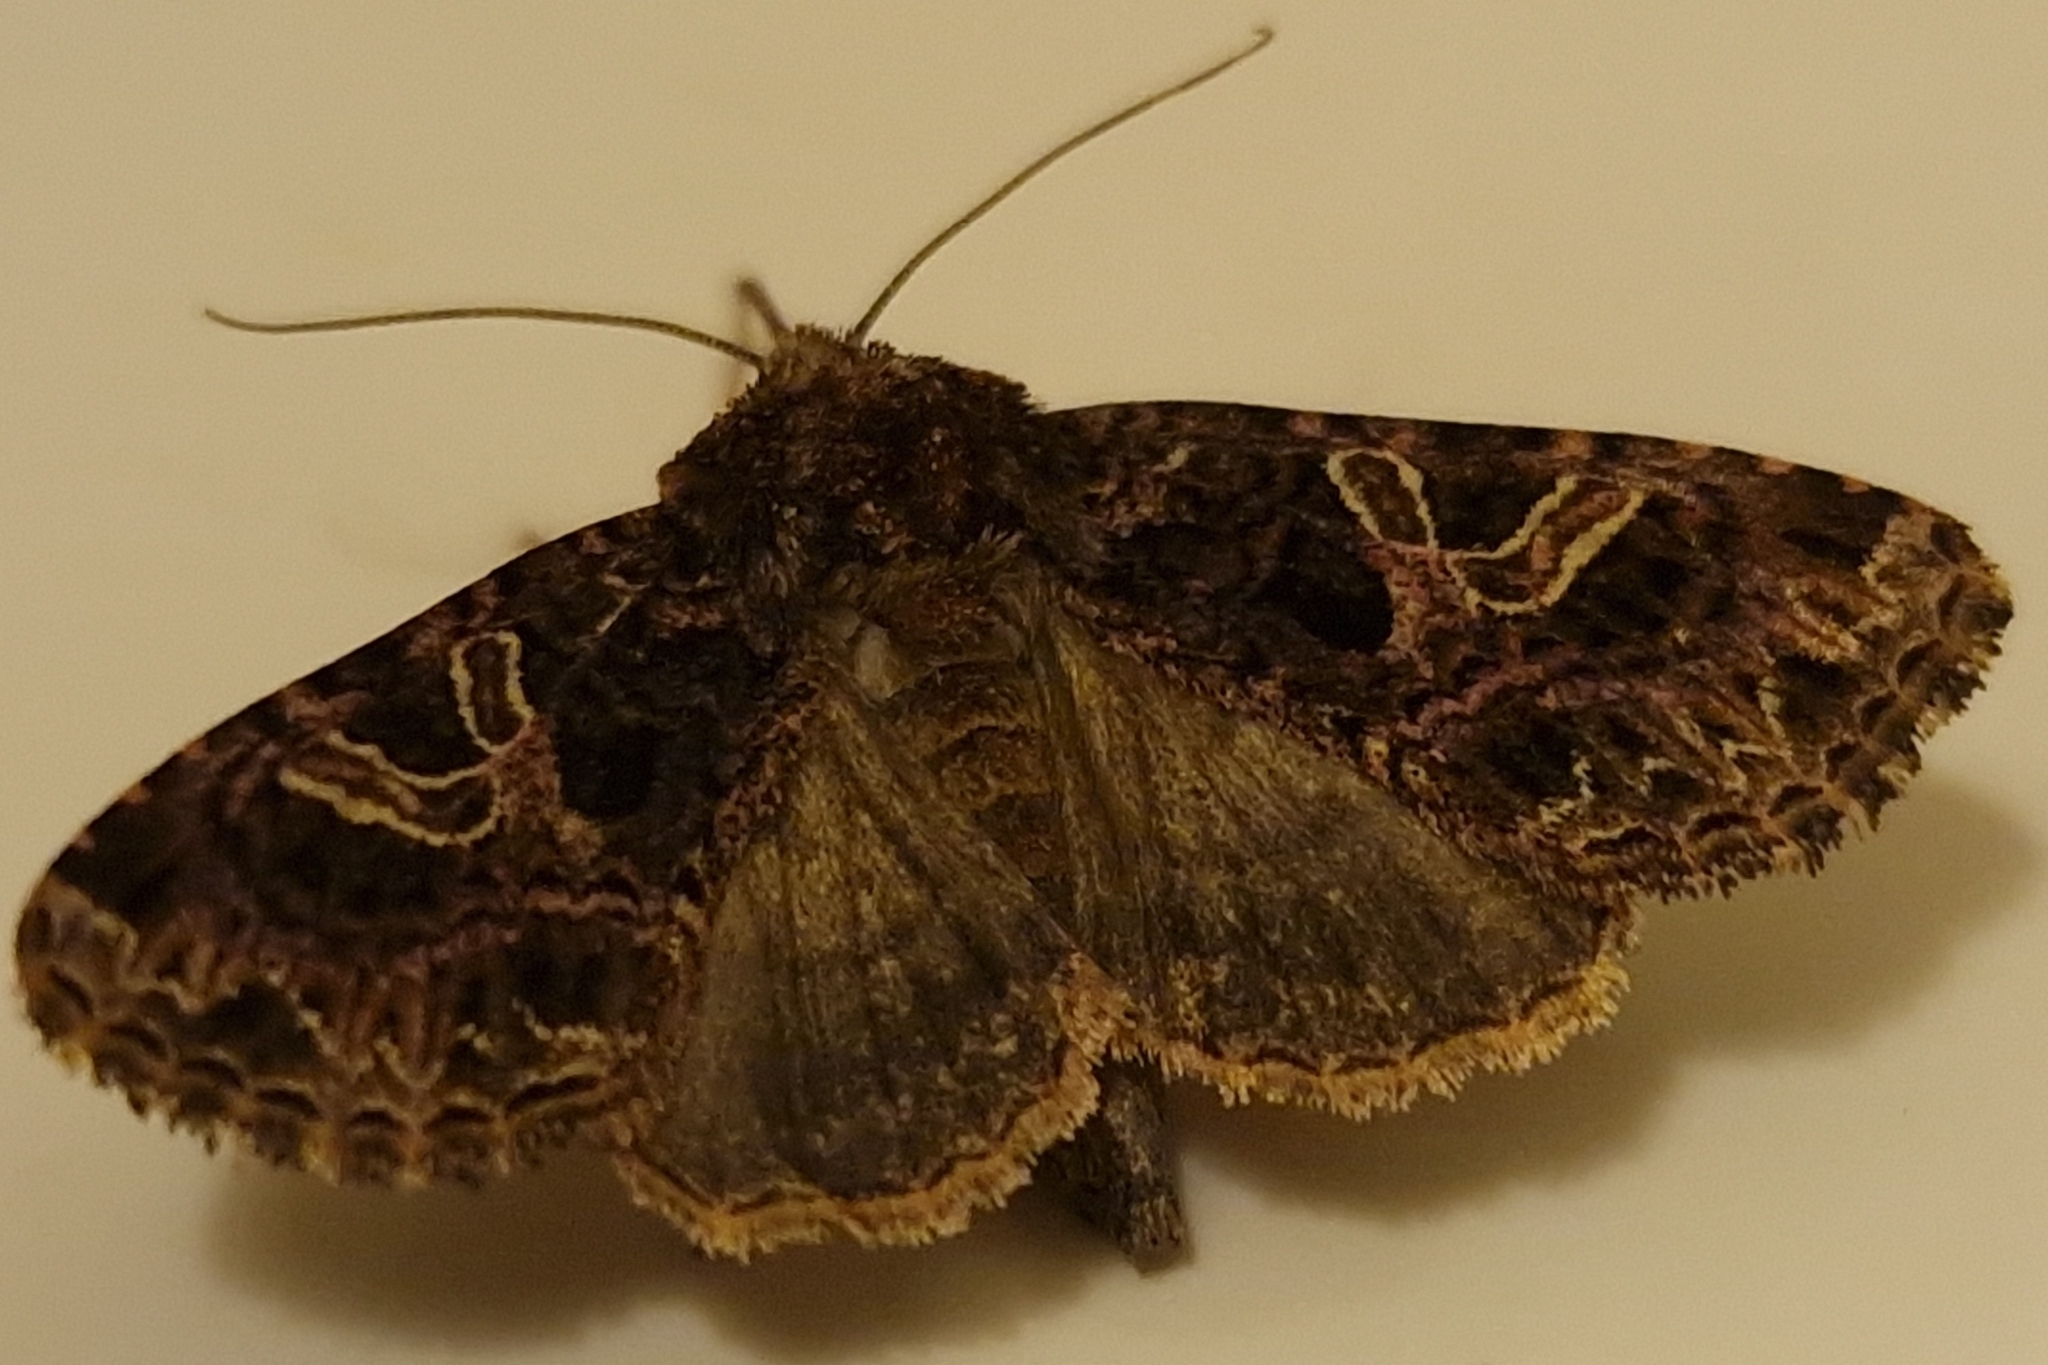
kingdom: Animalia
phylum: Arthropoda
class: Insecta
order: Lepidoptera
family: Noctuidae
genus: Sideridis
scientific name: Sideridis rivularis
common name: Campion
